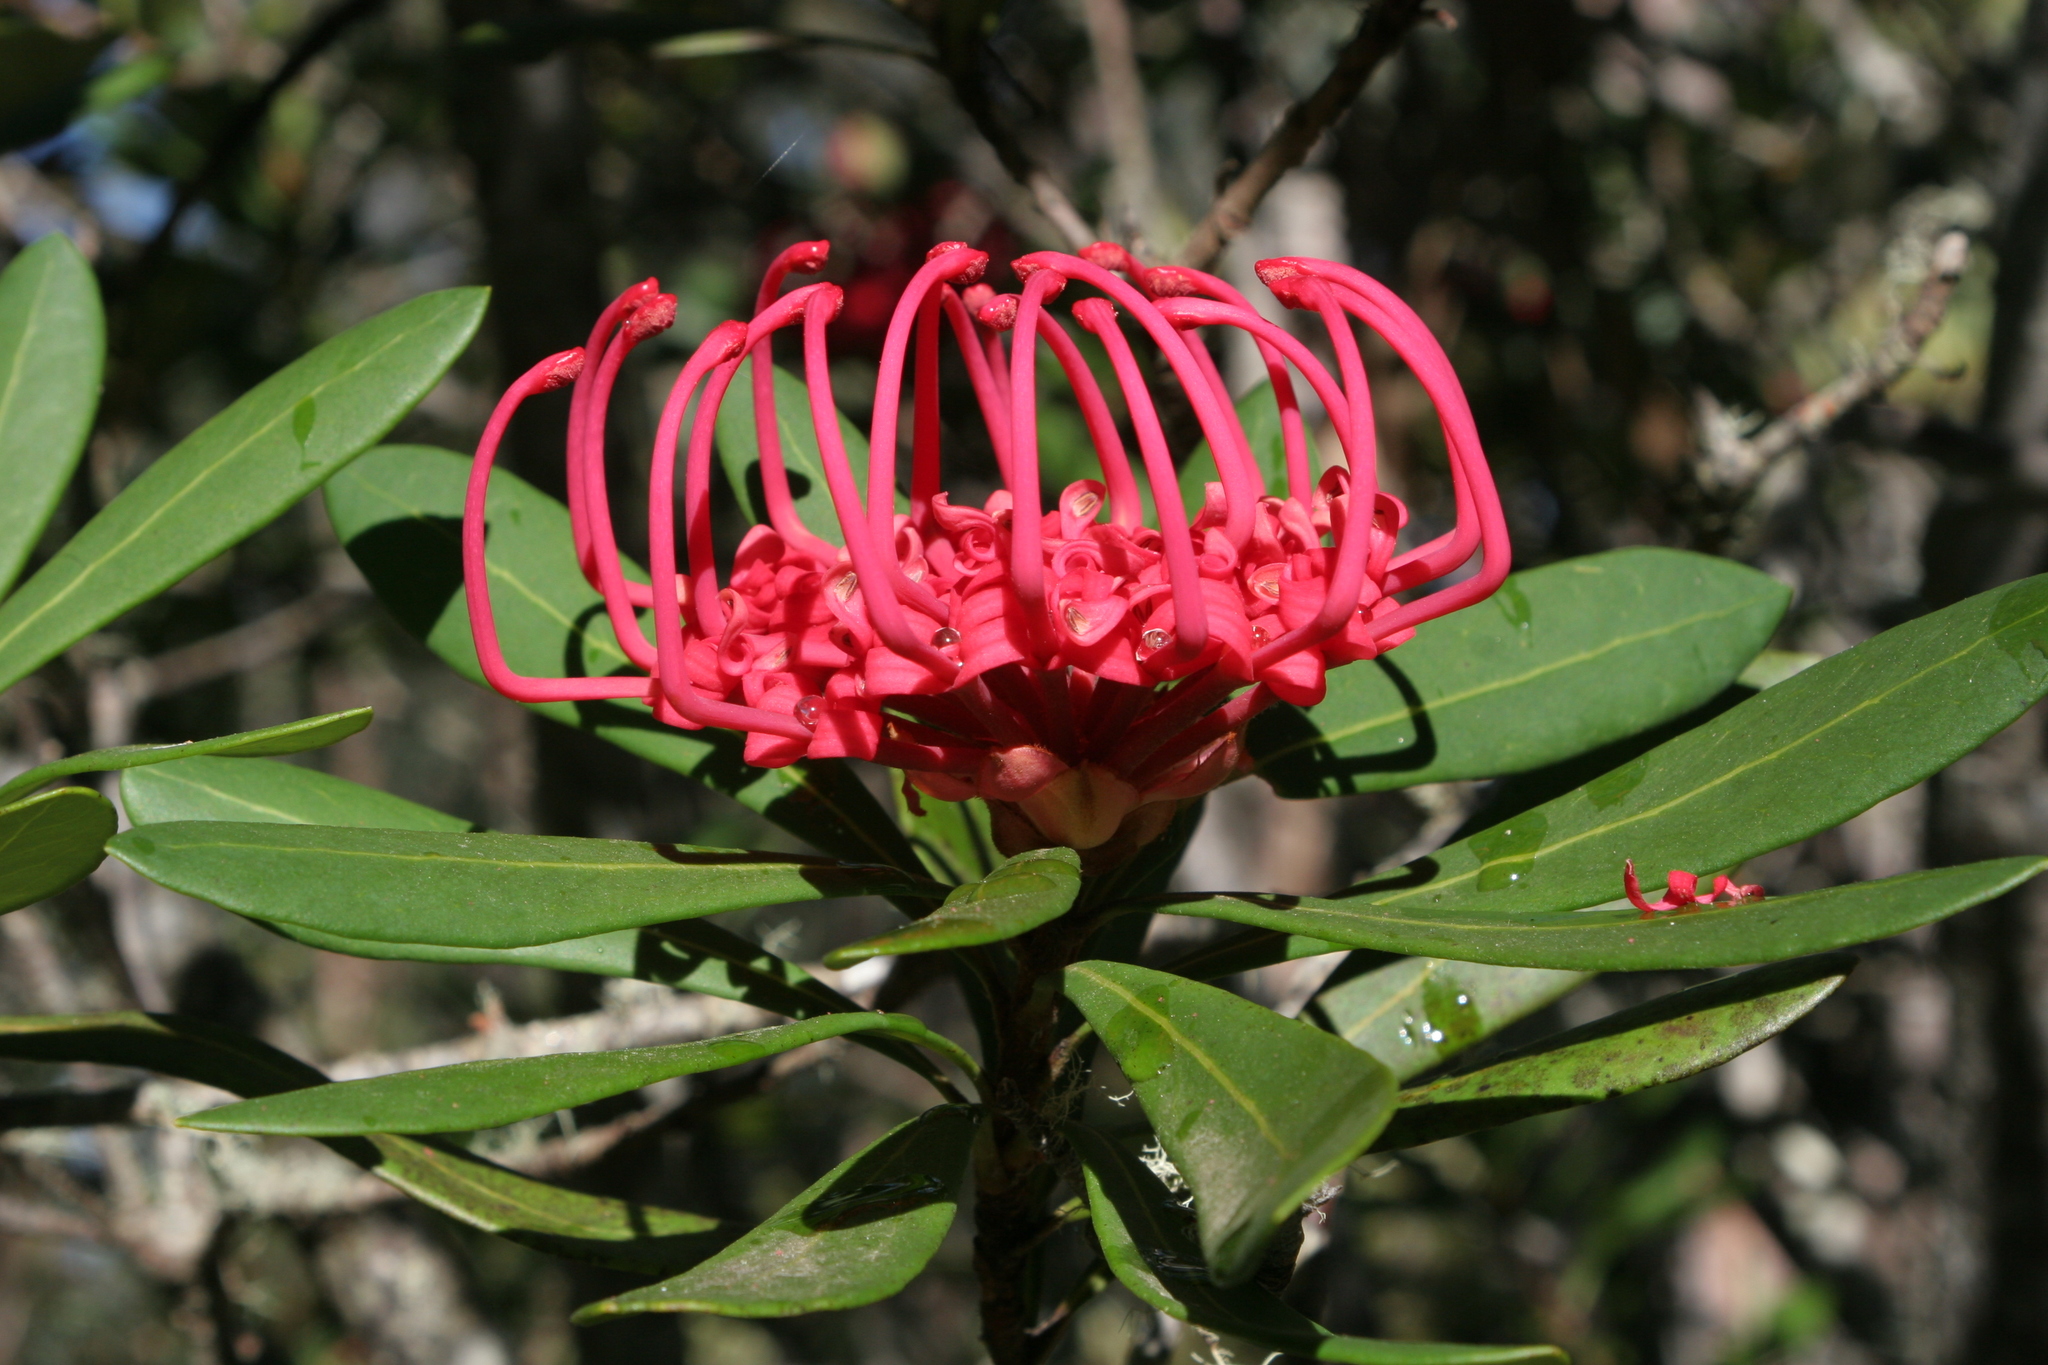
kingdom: Plantae
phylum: Tracheophyta
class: Magnoliopsida
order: Proteales
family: Proteaceae
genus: Telopea
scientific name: Telopea truncata
